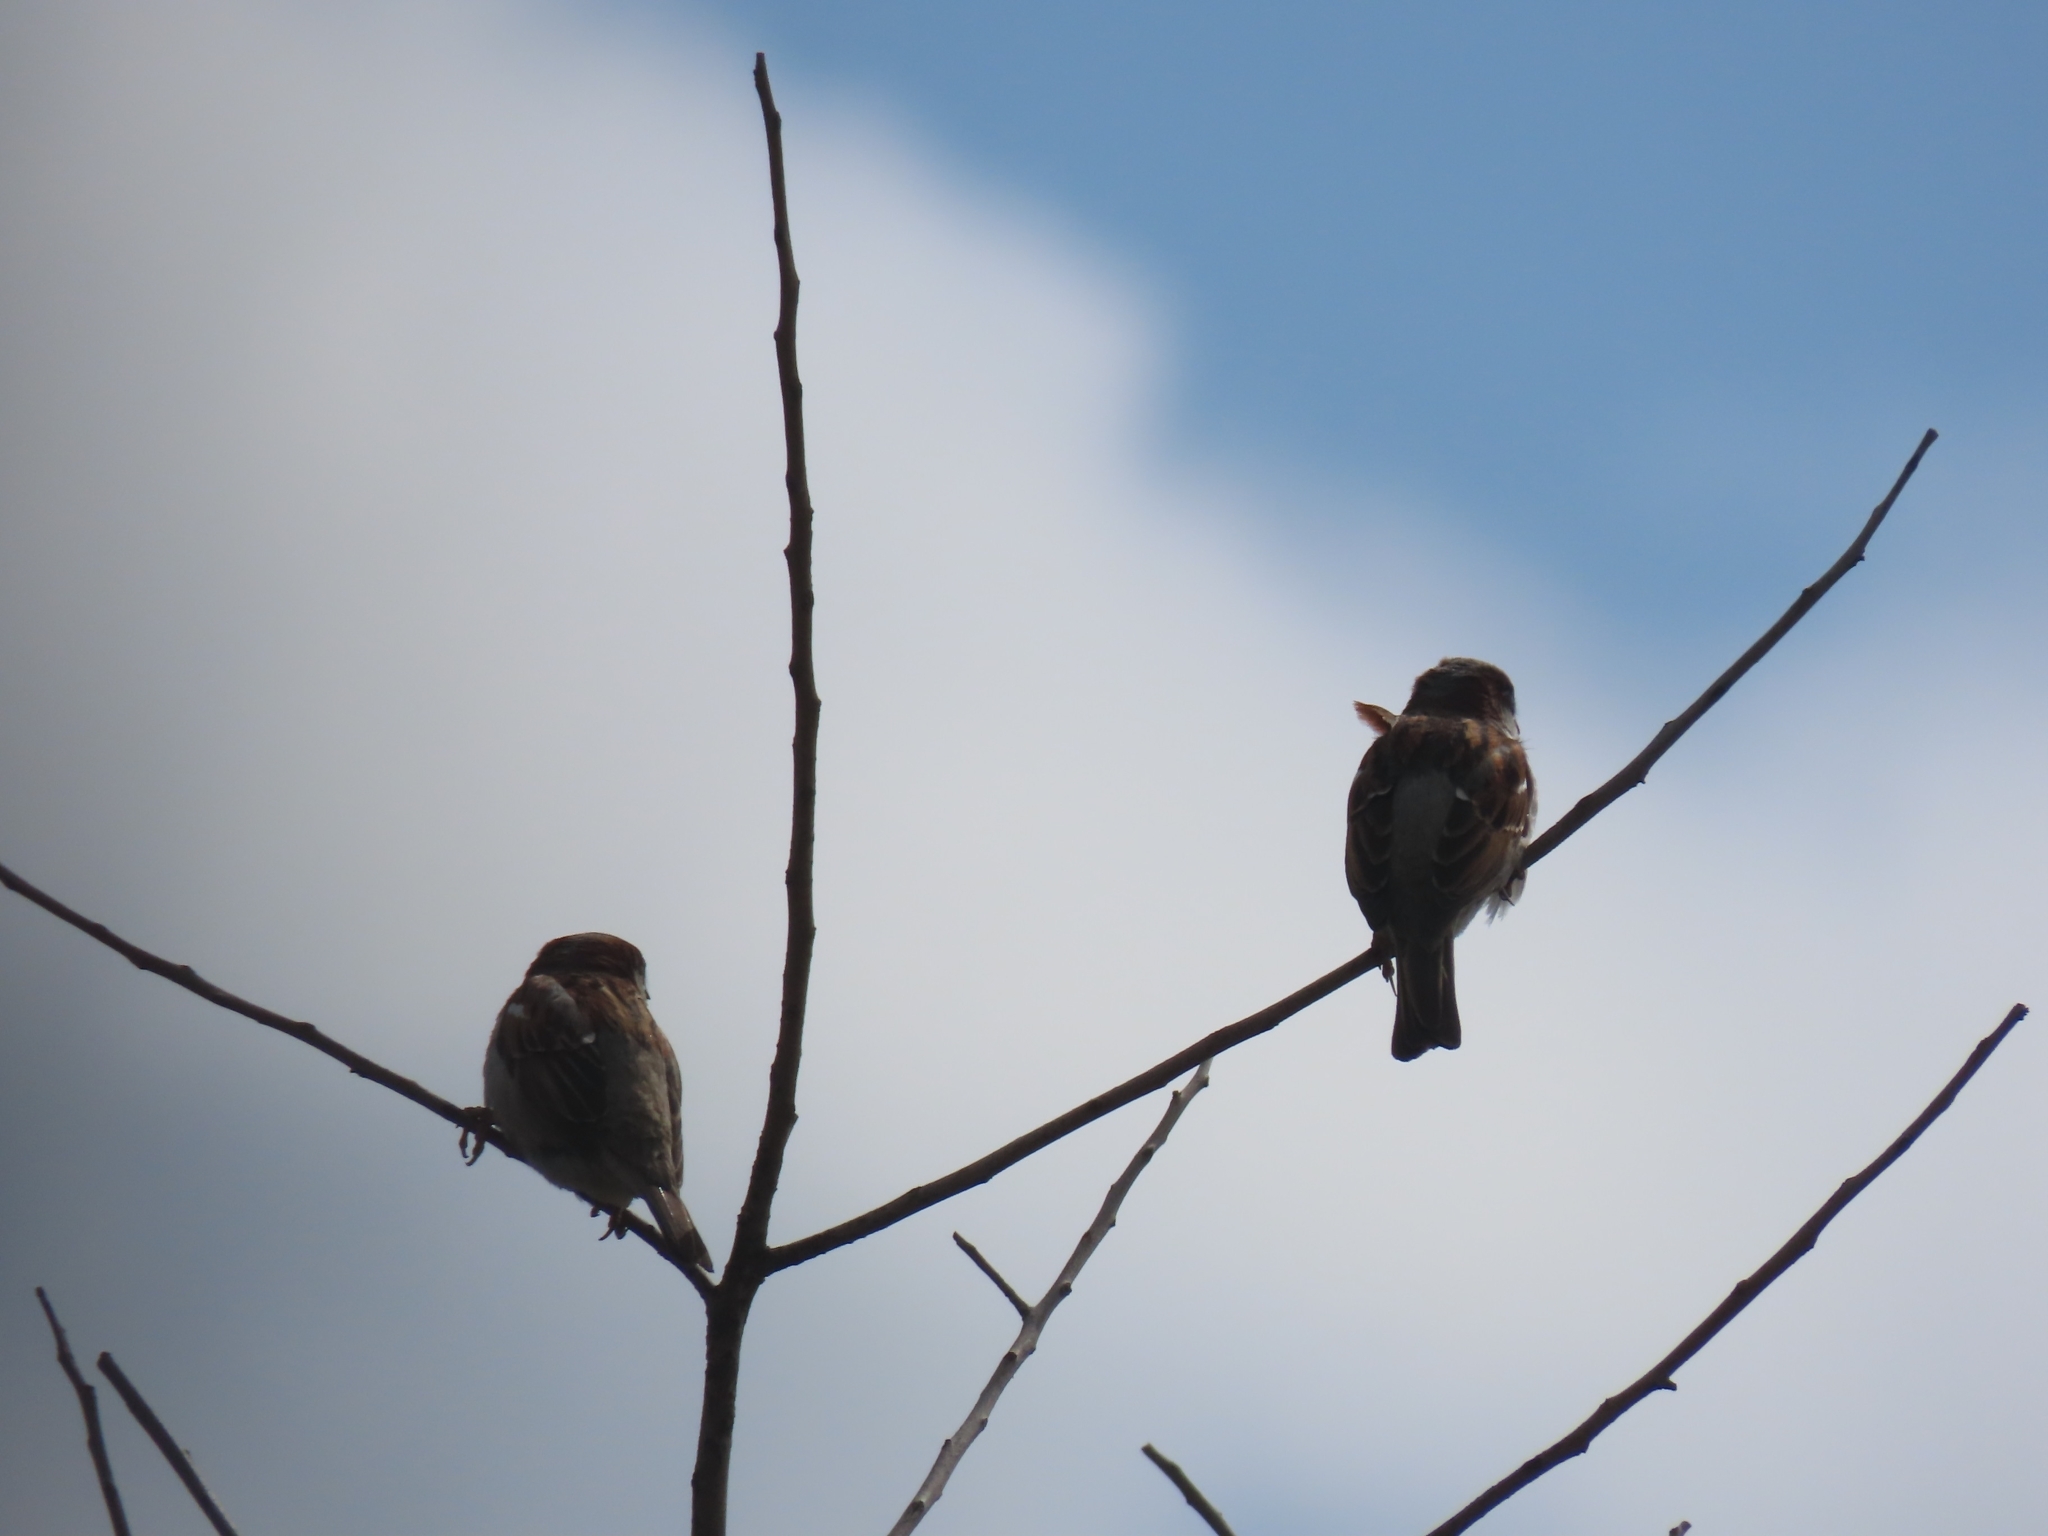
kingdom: Animalia
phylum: Chordata
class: Aves
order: Passeriformes
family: Passeridae
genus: Passer
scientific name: Passer domesticus
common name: House sparrow
